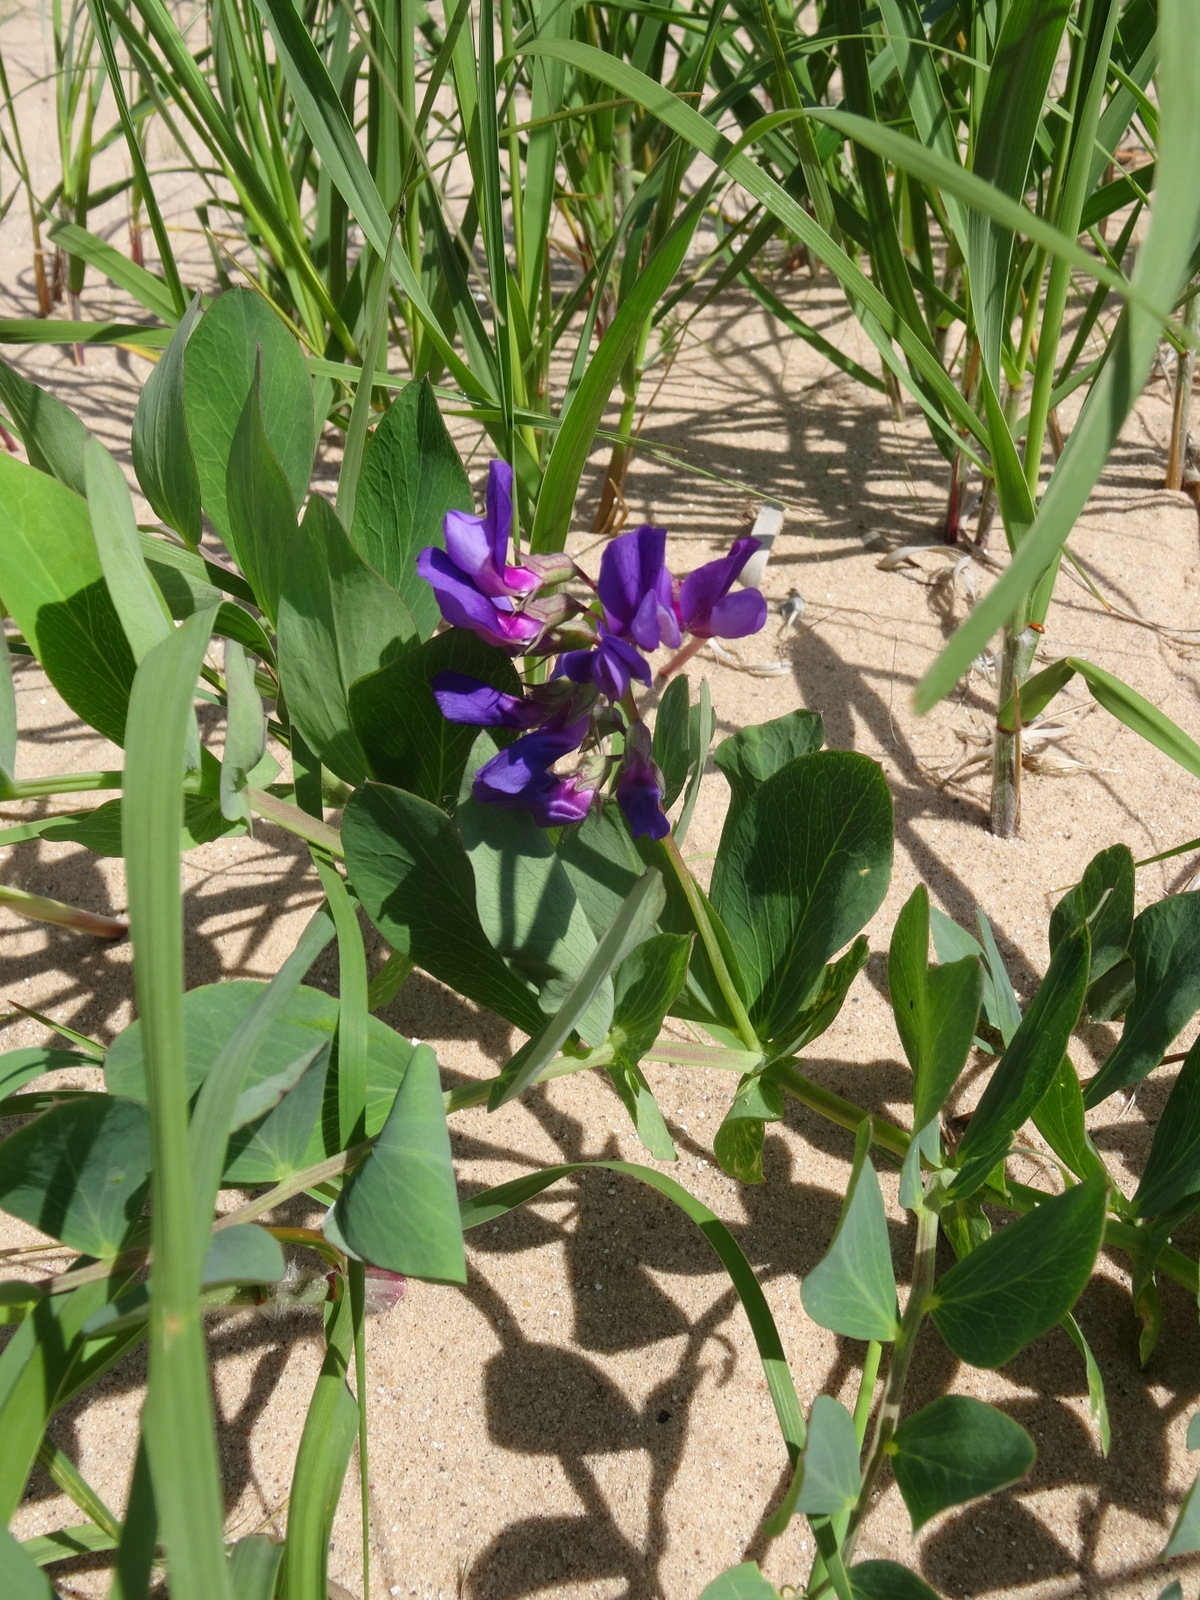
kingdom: Plantae
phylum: Tracheophyta
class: Magnoliopsida
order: Fabales
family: Fabaceae
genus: Lathyrus
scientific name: Lathyrus japonicus
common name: Sea pea
